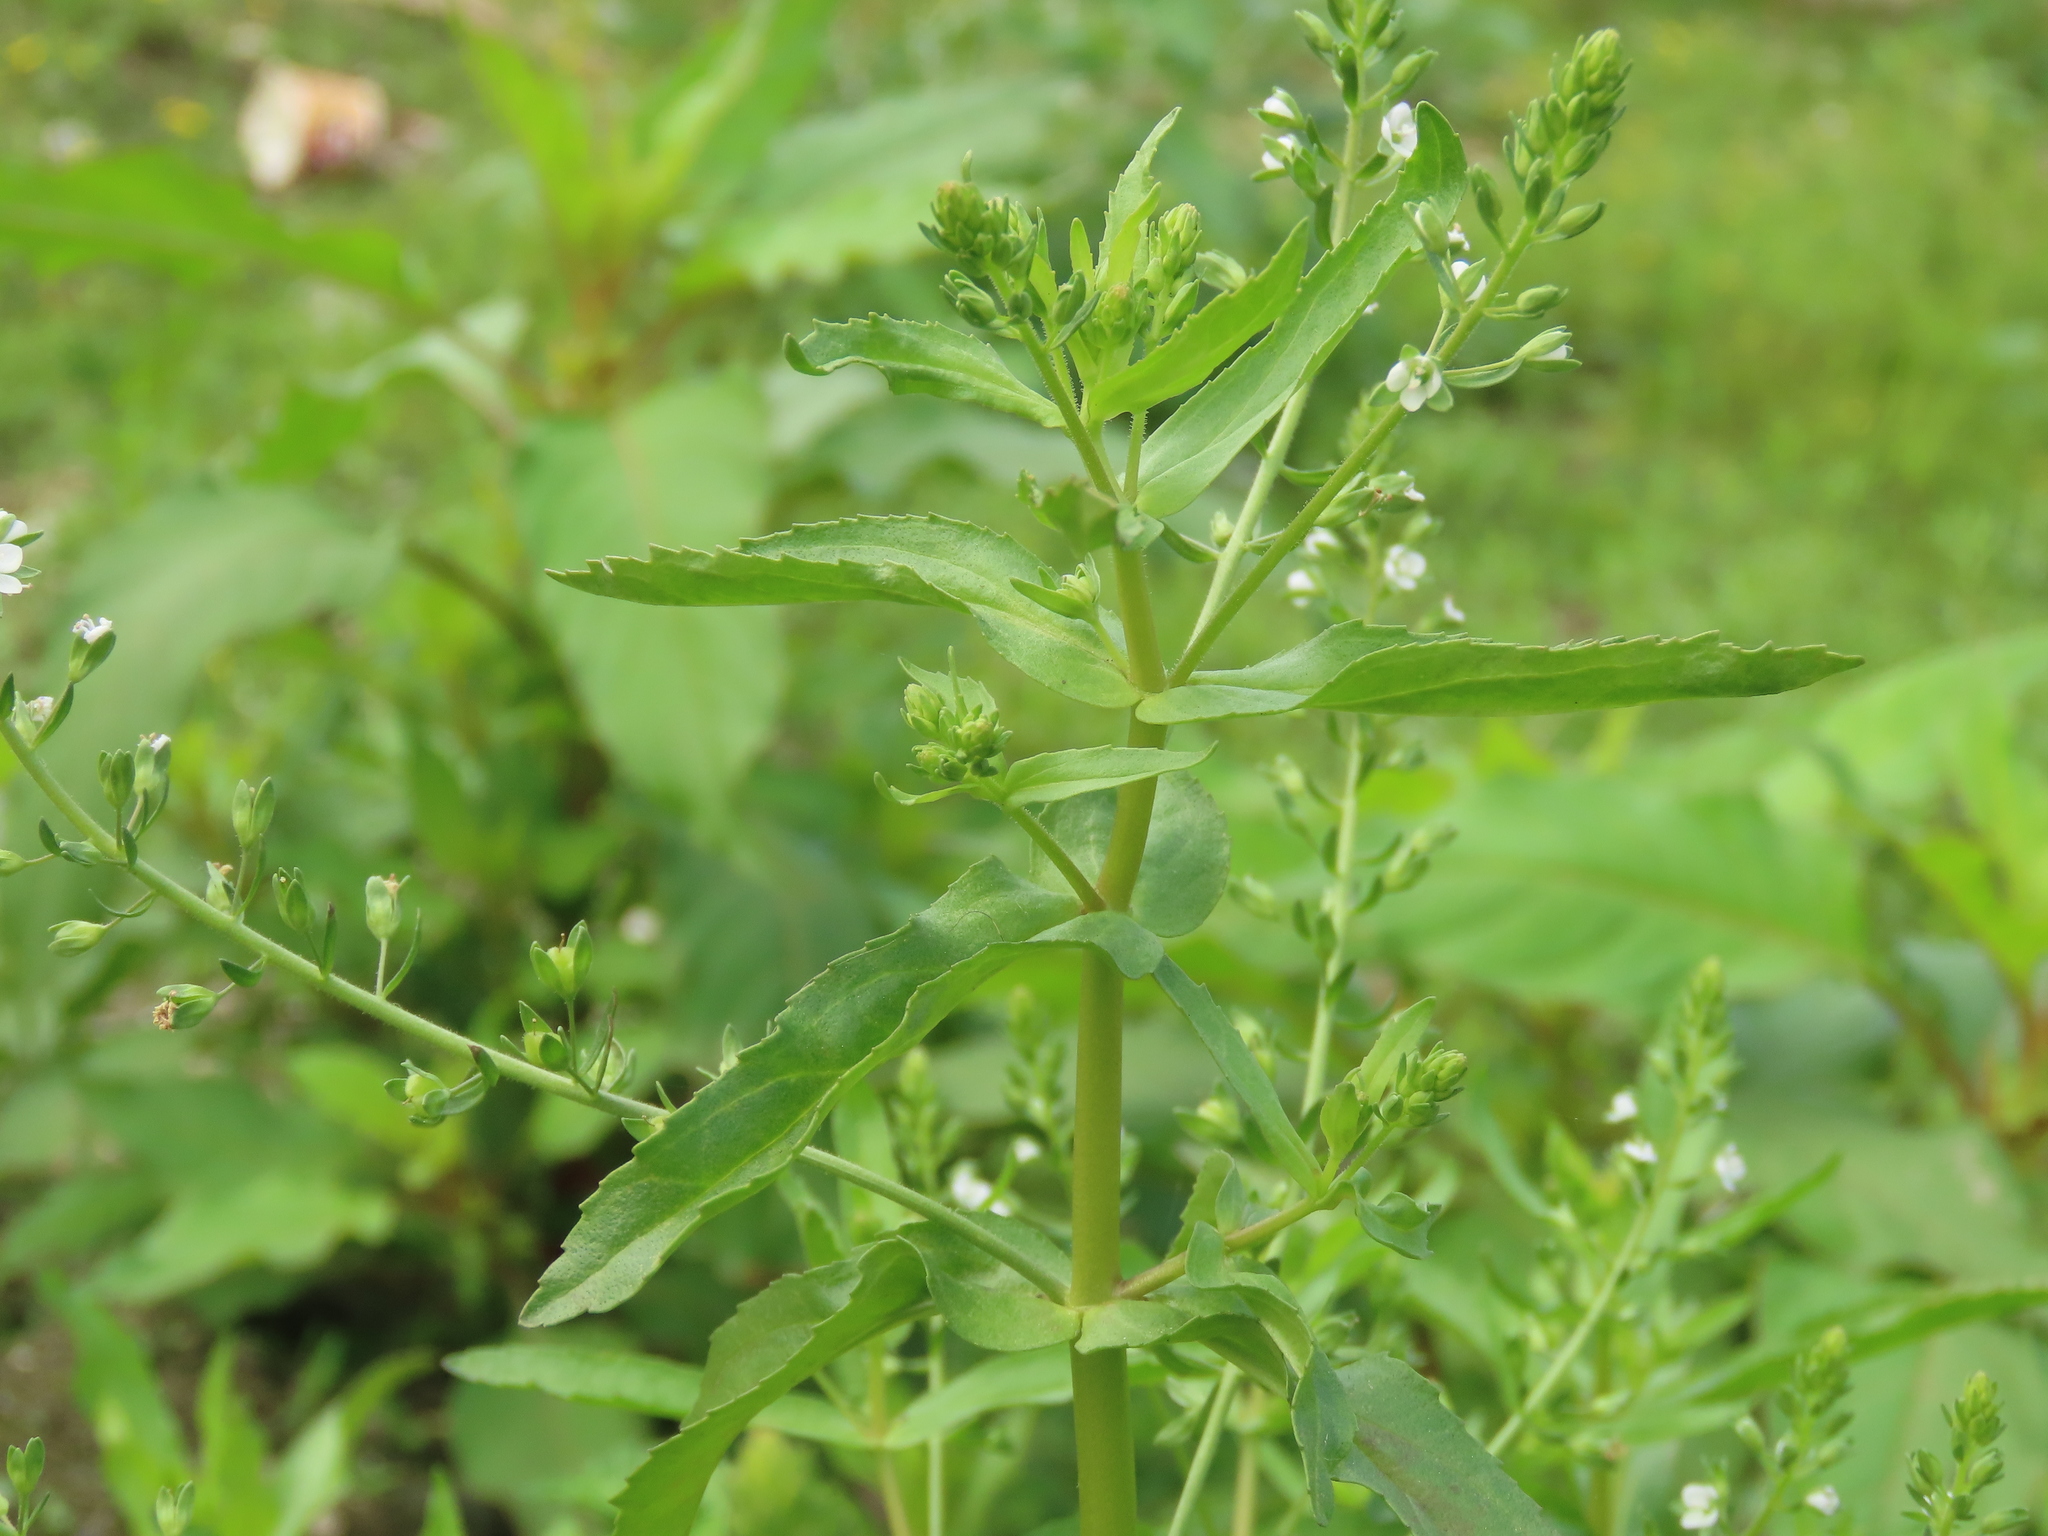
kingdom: Plantae
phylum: Tracheophyta
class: Magnoliopsida
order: Lamiales
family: Plantaginaceae
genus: Veronica
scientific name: Veronica undulata
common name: Undulate speedwell
